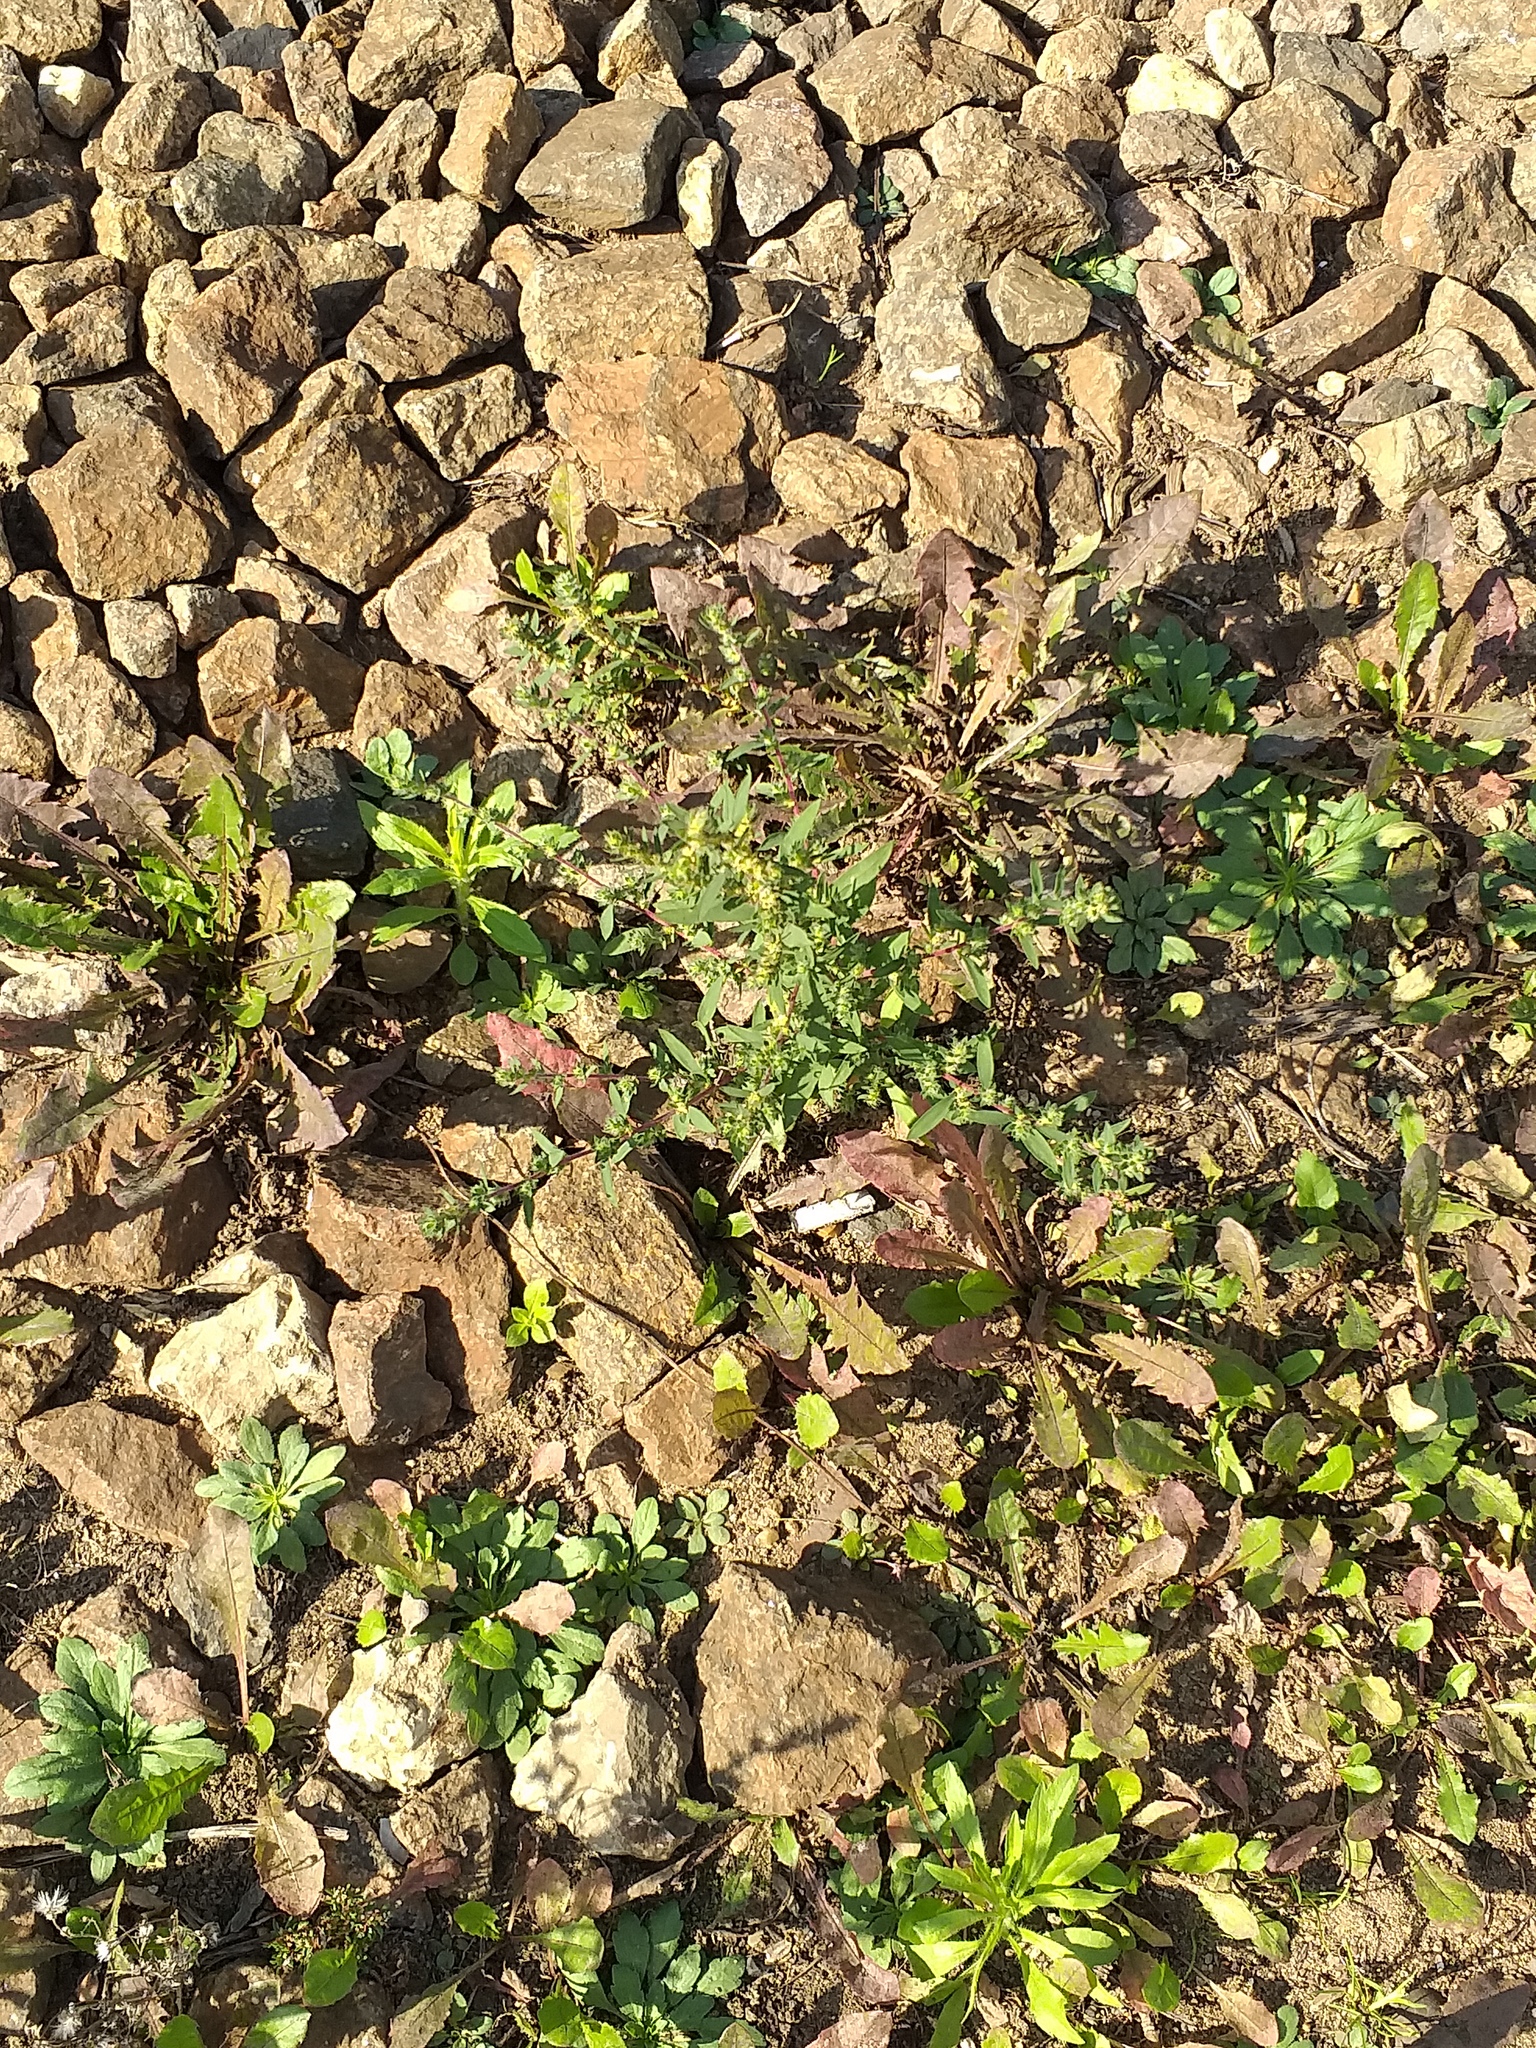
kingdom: Plantae
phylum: Tracheophyta
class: Magnoliopsida
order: Caryophyllales
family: Amaranthaceae
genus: Bassia
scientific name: Bassia scoparia
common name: Belvedere
